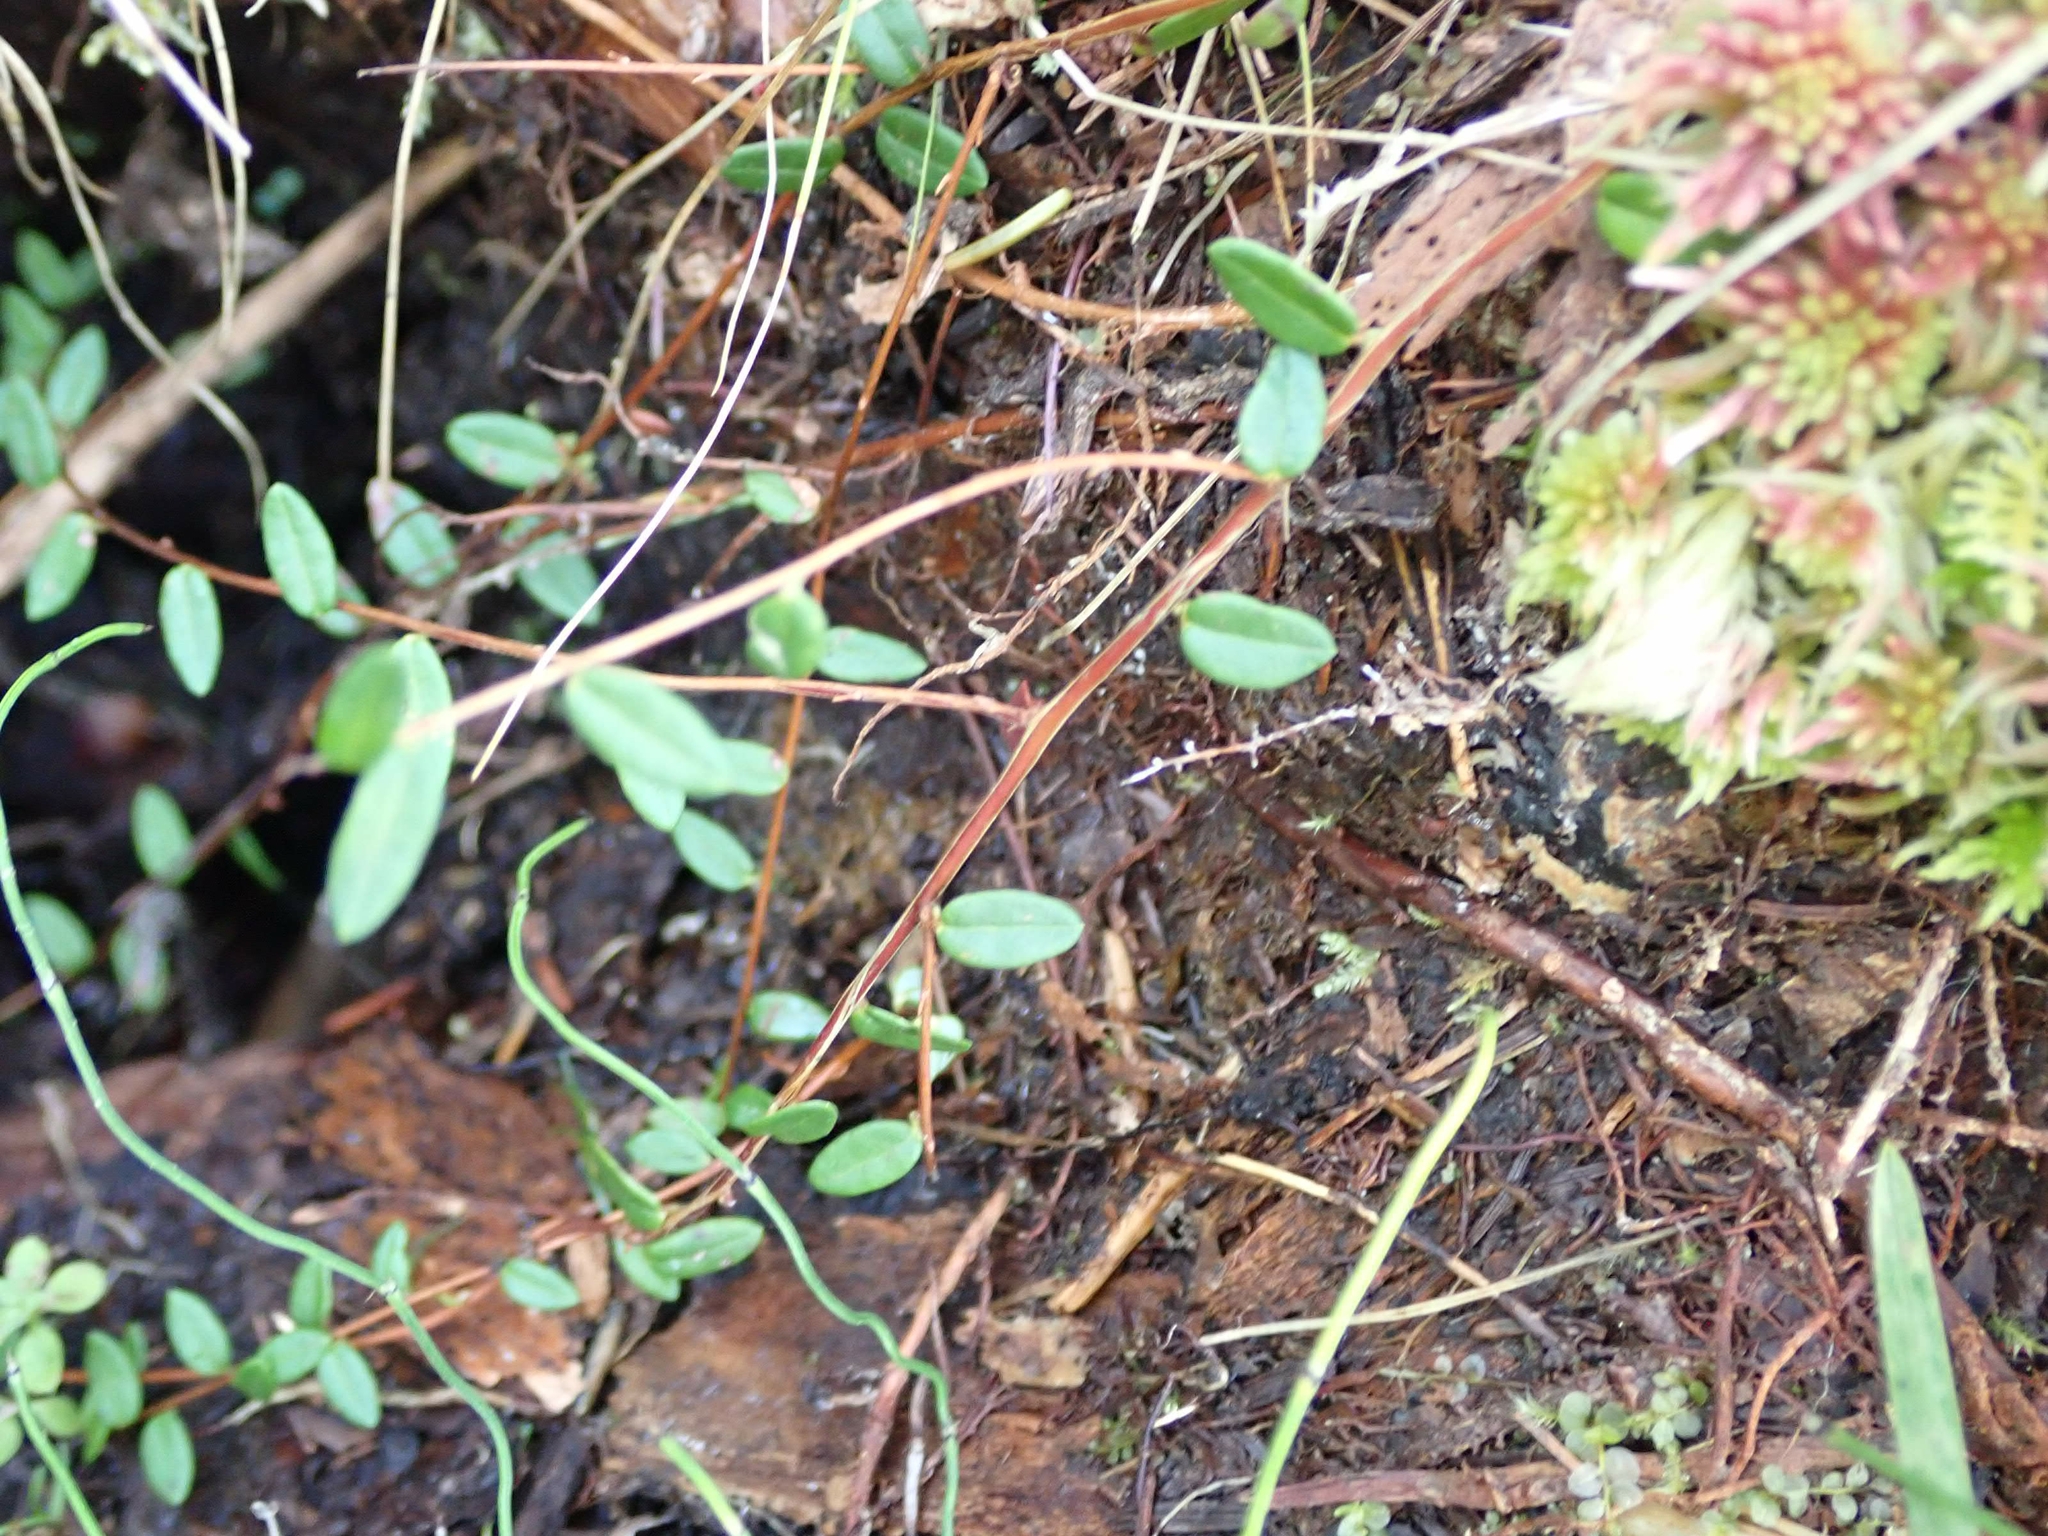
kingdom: Plantae
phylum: Tracheophyta
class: Magnoliopsida
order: Ericales
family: Ericaceae
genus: Vaccinium
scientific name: Vaccinium oxycoccos
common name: Cranberry
